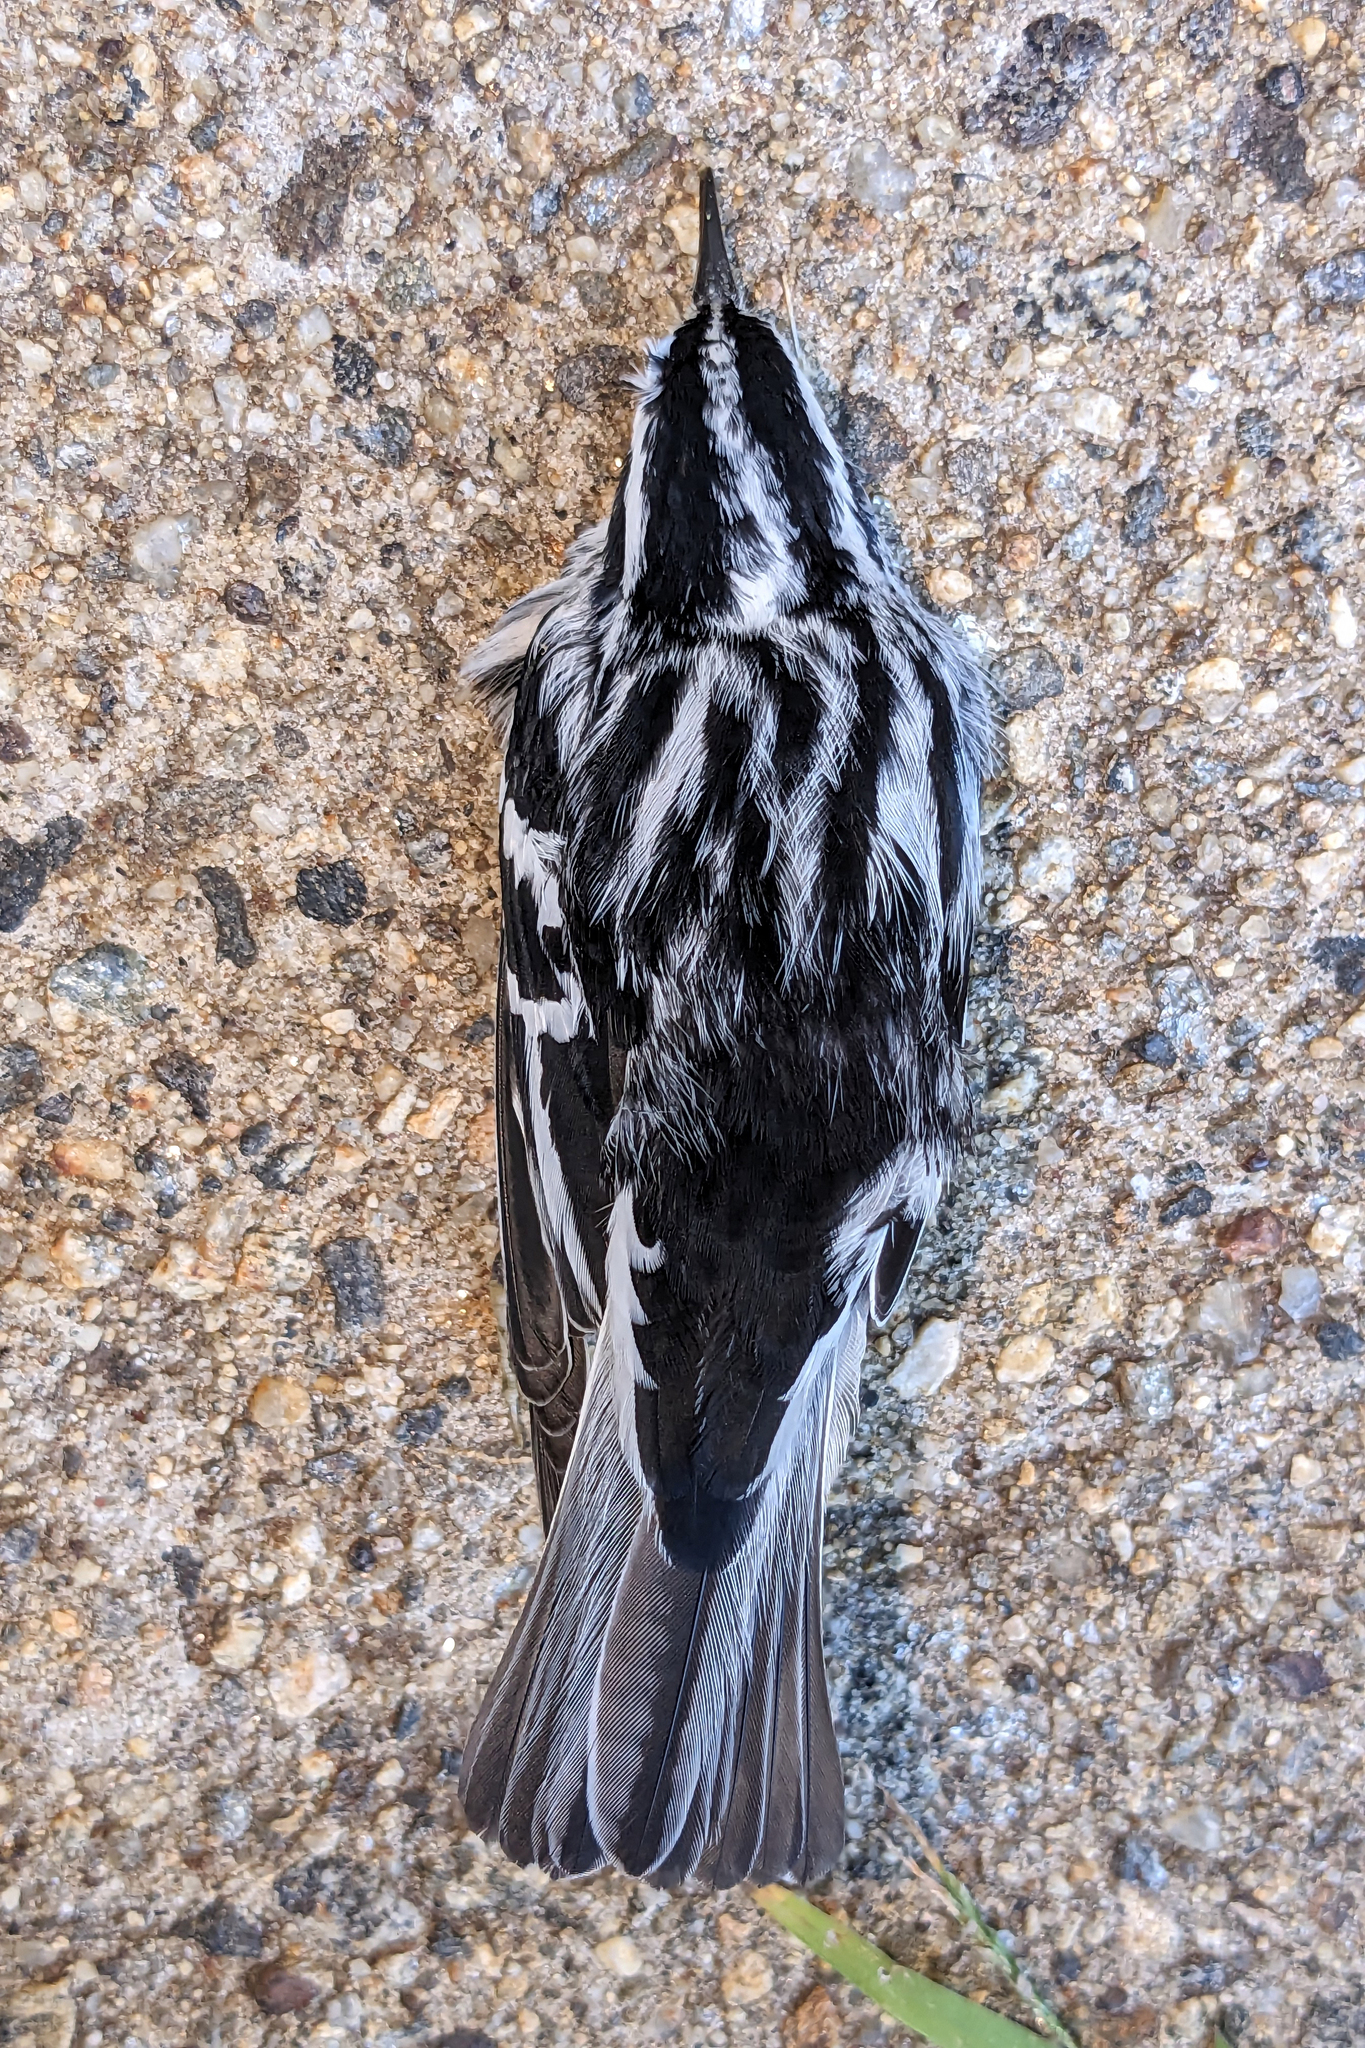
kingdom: Animalia
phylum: Chordata
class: Aves
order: Passeriformes
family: Parulidae
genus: Mniotilta
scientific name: Mniotilta varia
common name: Black-and-white warbler
